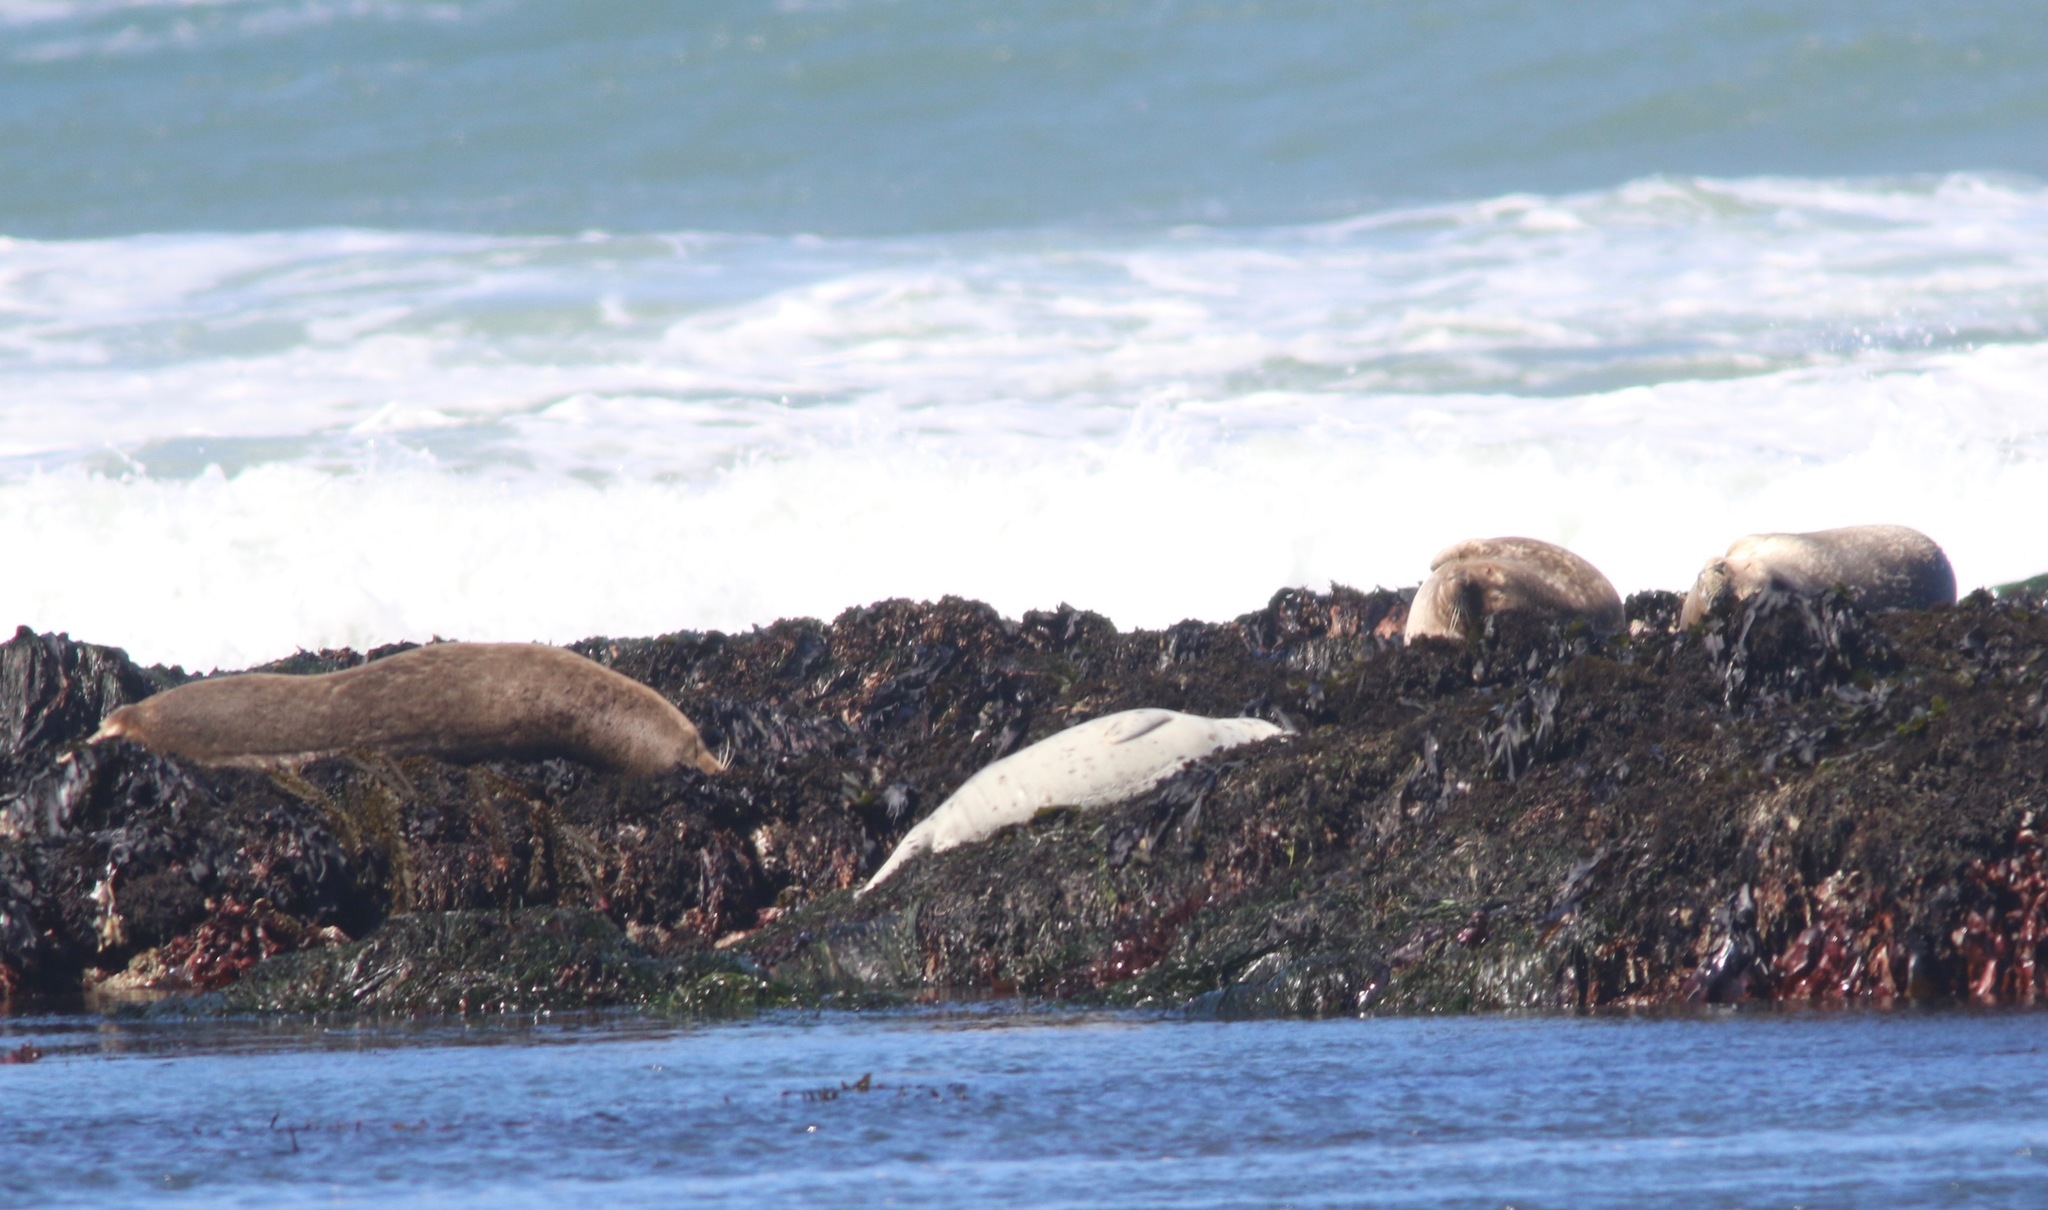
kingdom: Animalia
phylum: Chordata
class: Mammalia
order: Carnivora
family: Phocidae
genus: Phoca
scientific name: Phoca vitulina
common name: Harbor seal
